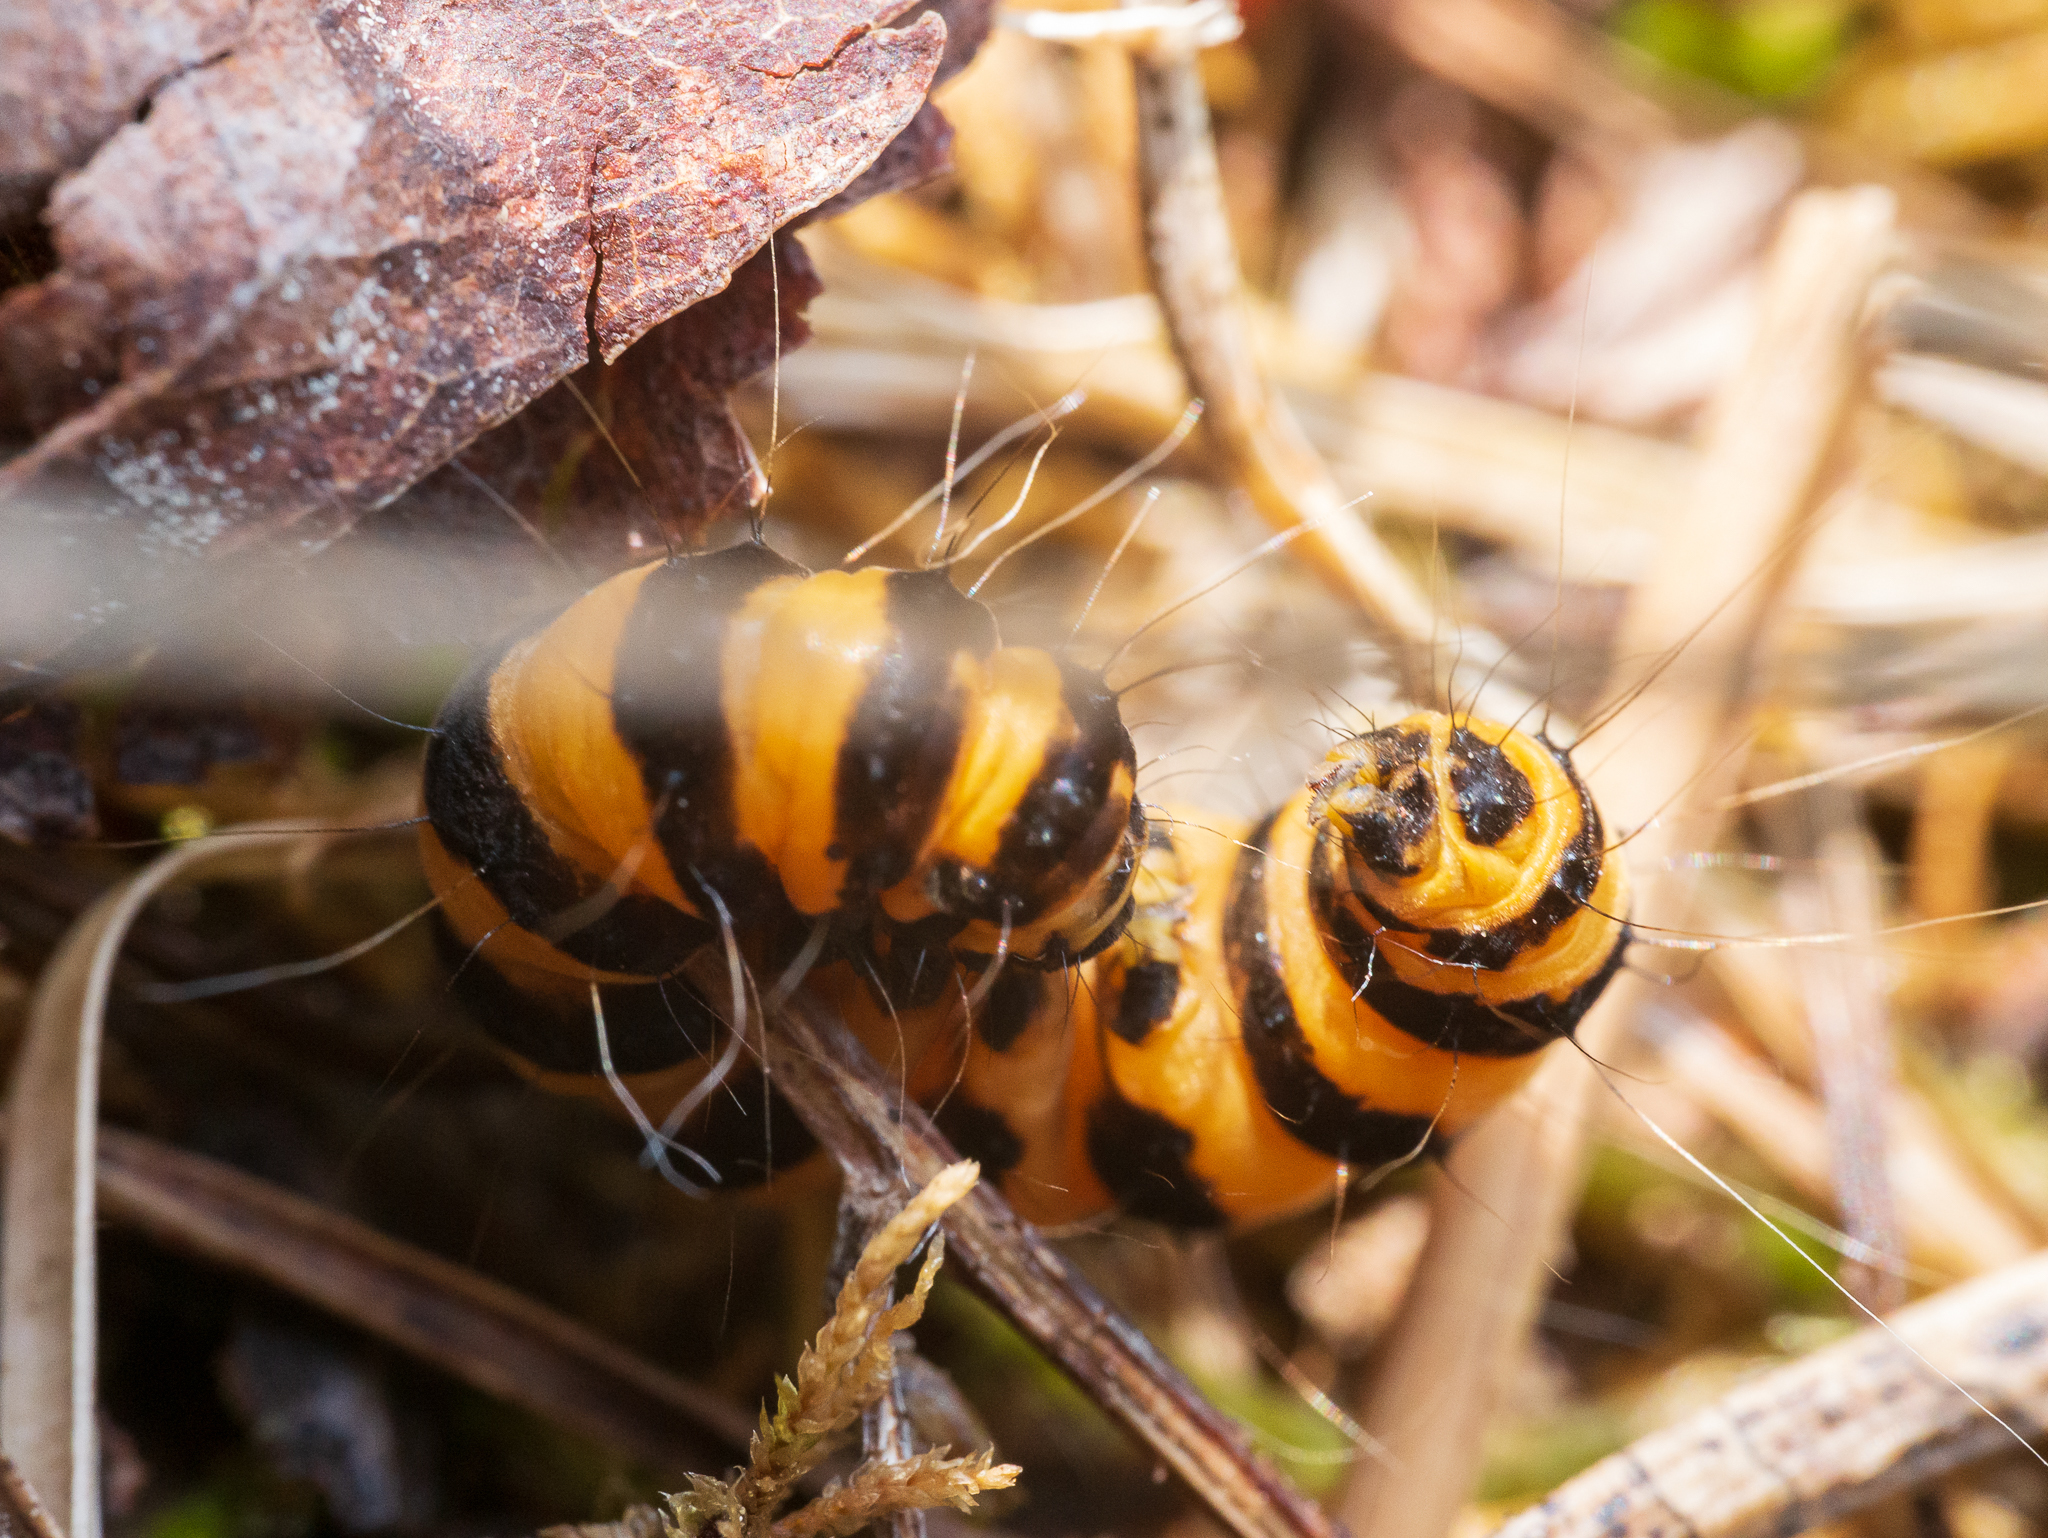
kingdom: Animalia
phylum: Arthropoda
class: Insecta
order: Lepidoptera
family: Erebidae
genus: Tyria
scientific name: Tyria jacobaeae
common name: Cinnabar
